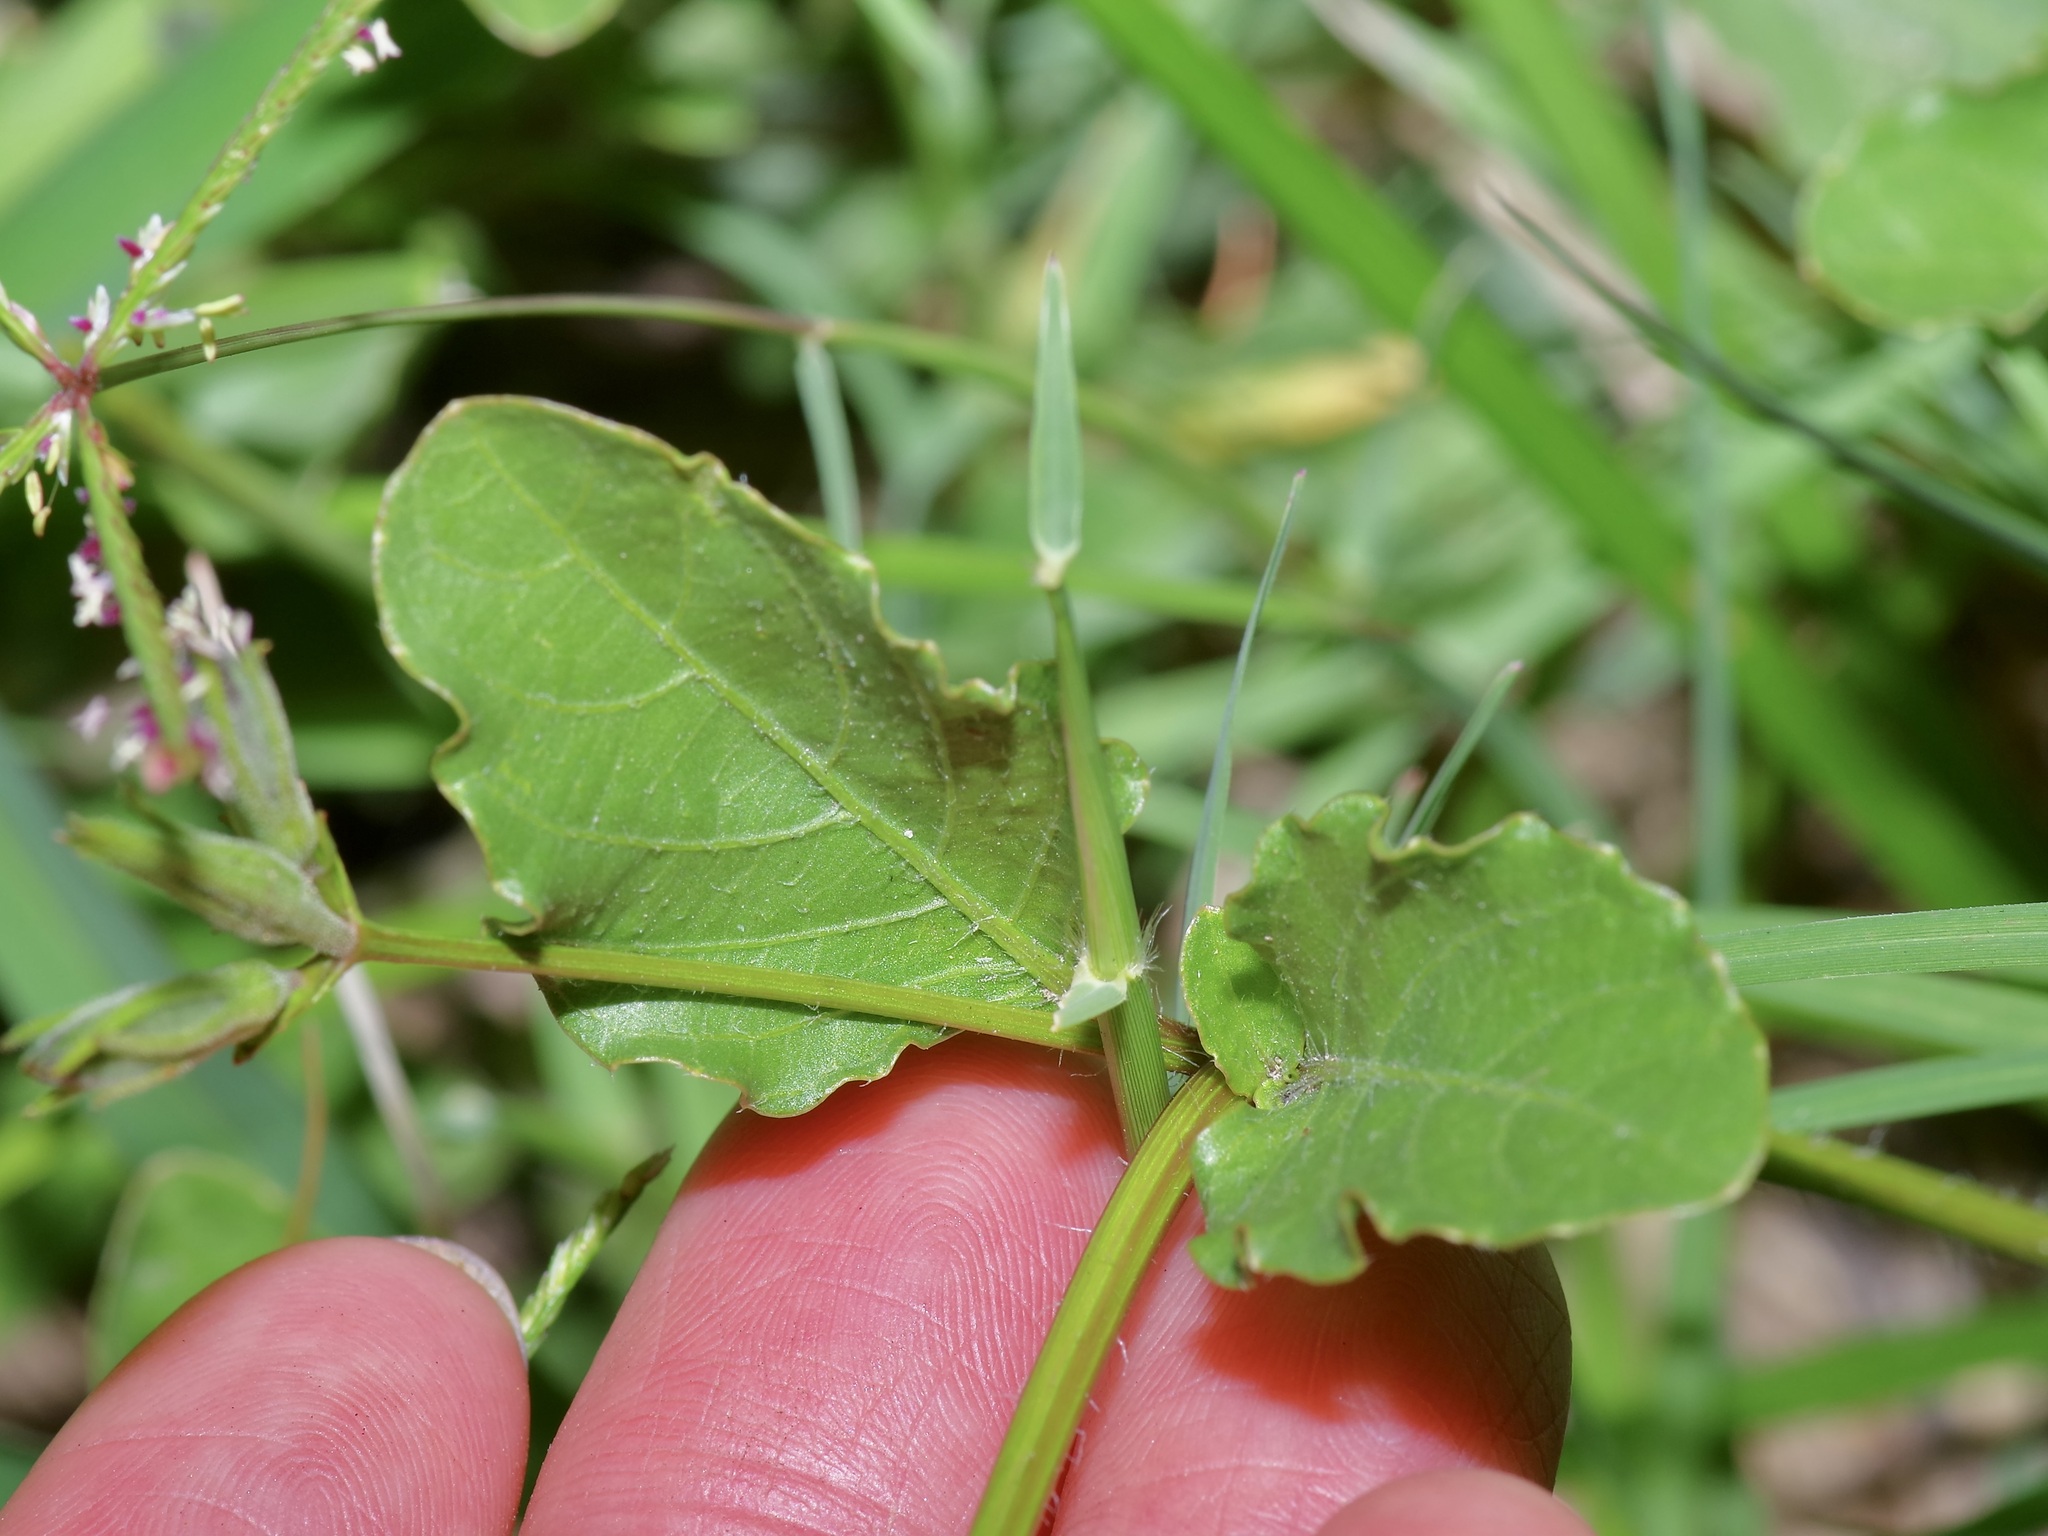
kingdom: Plantae
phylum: Tracheophyta
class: Magnoliopsida
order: Lamiales
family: Acanthaceae
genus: Ruellia
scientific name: Ruellia ciliatiflora
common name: Hairyflower wild petunia
